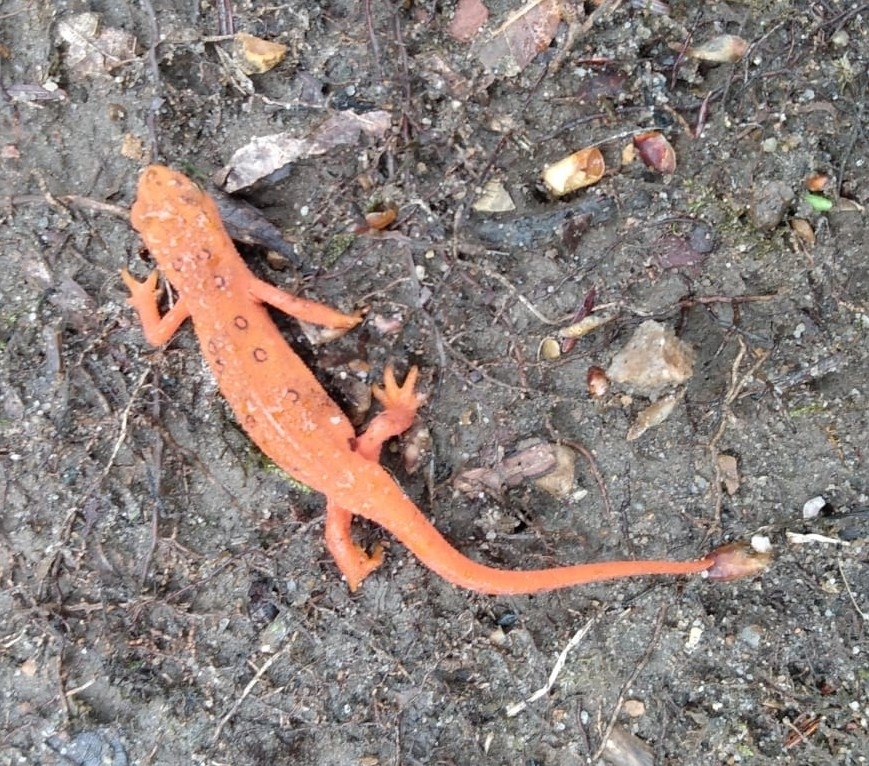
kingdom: Animalia
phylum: Chordata
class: Amphibia
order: Caudata
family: Salamandridae
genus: Notophthalmus
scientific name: Notophthalmus viridescens
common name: Eastern newt
